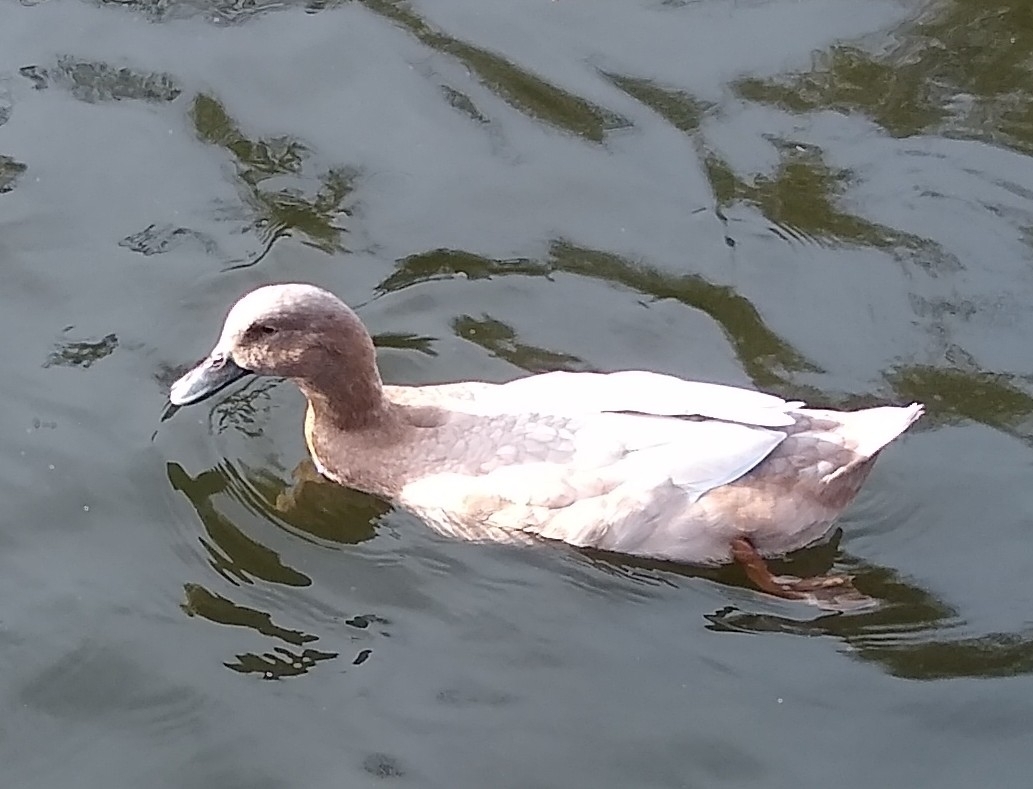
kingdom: Animalia
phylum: Chordata
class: Aves
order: Anseriformes
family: Anatidae
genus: Anas
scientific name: Anas platyrhynchos
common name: Mallard
